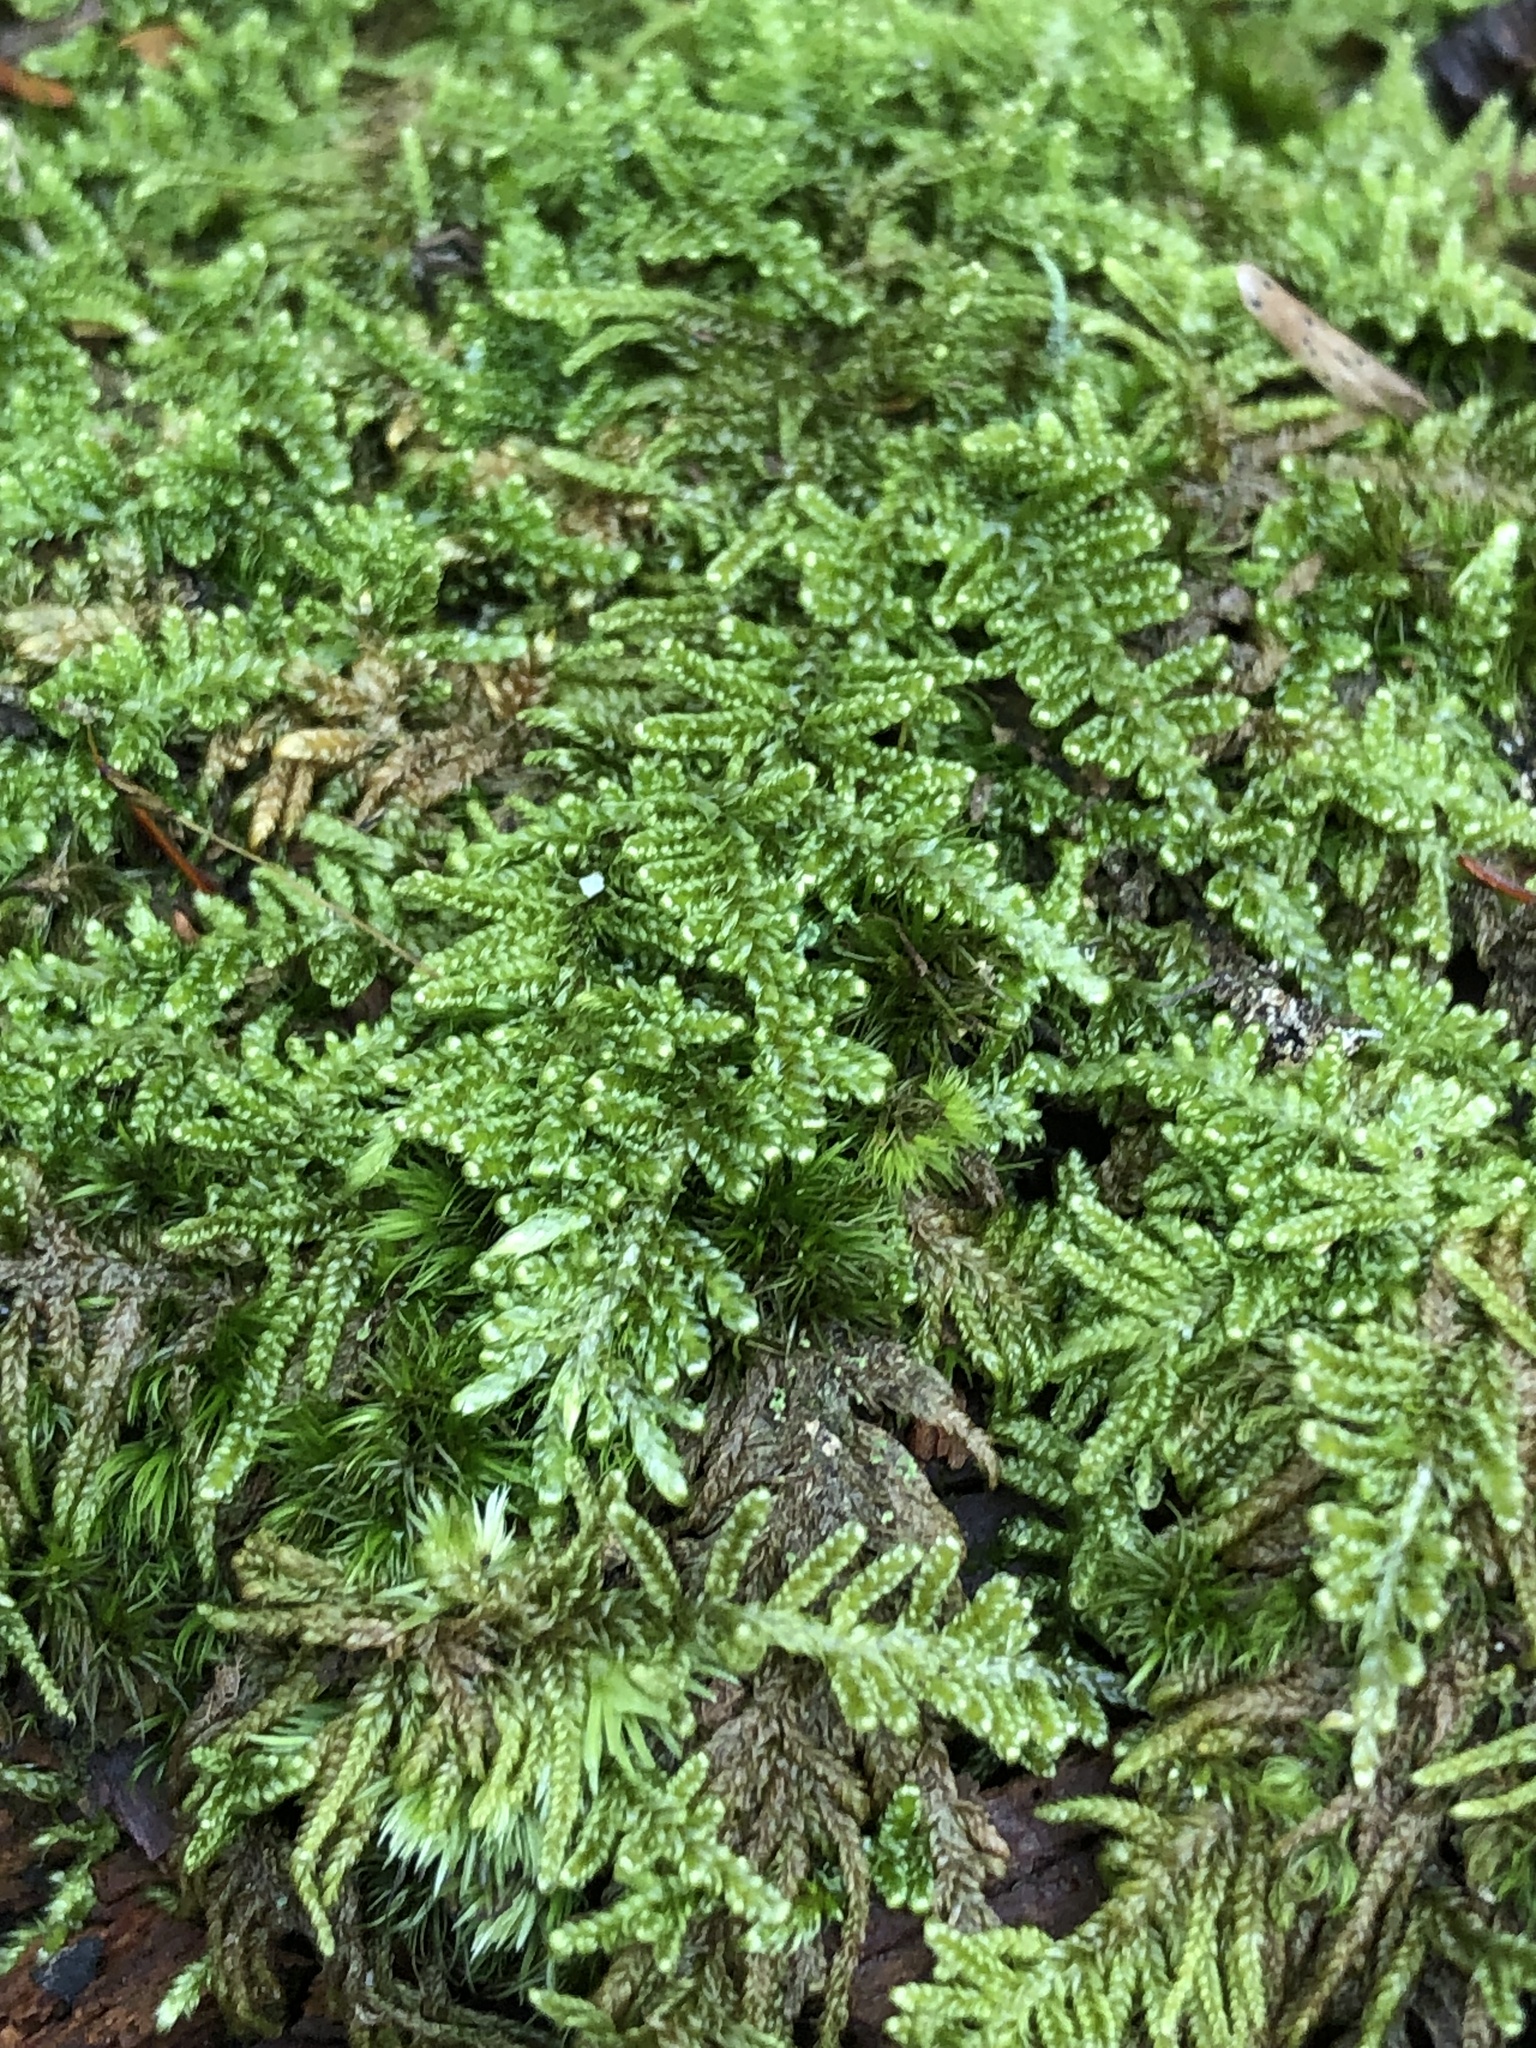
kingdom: Plantae
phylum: Bryophyta
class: Bryopsida
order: Hypnales
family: Callicladiaceae
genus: Callicladium
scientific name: Callicladium imponens
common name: Brocade moss
